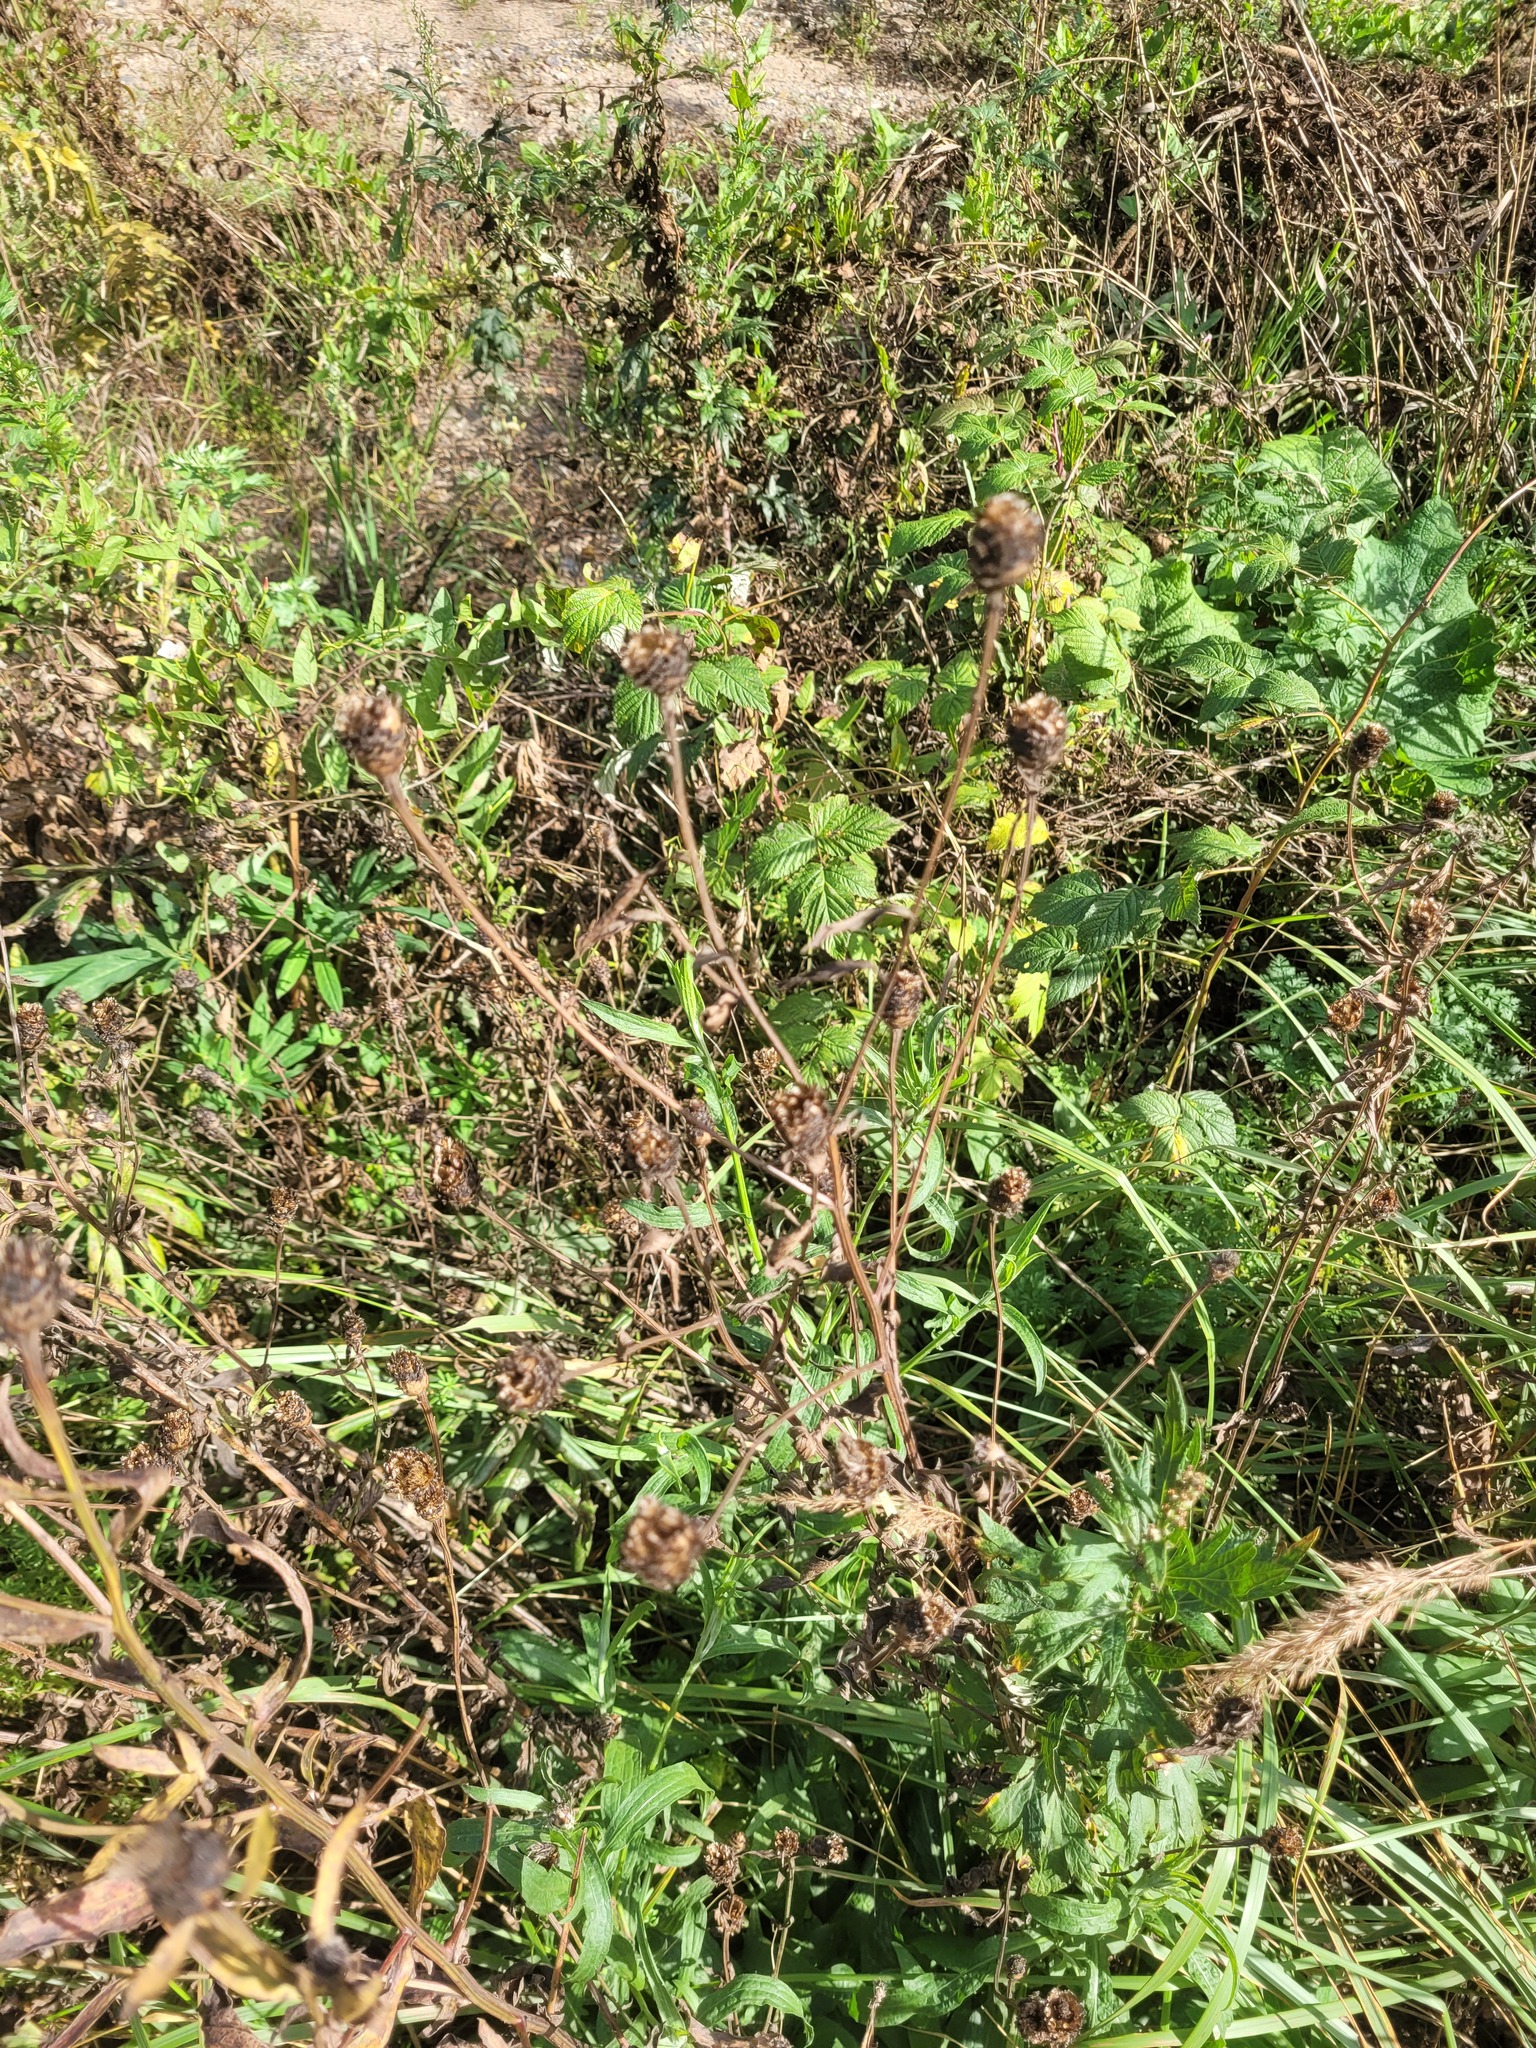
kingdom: Plantae
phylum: Tracheophyta
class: Magnoliopsida
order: Asterales
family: Asteraceae
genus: Centaurea
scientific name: Centaurea jacea
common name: Brown knapweed
